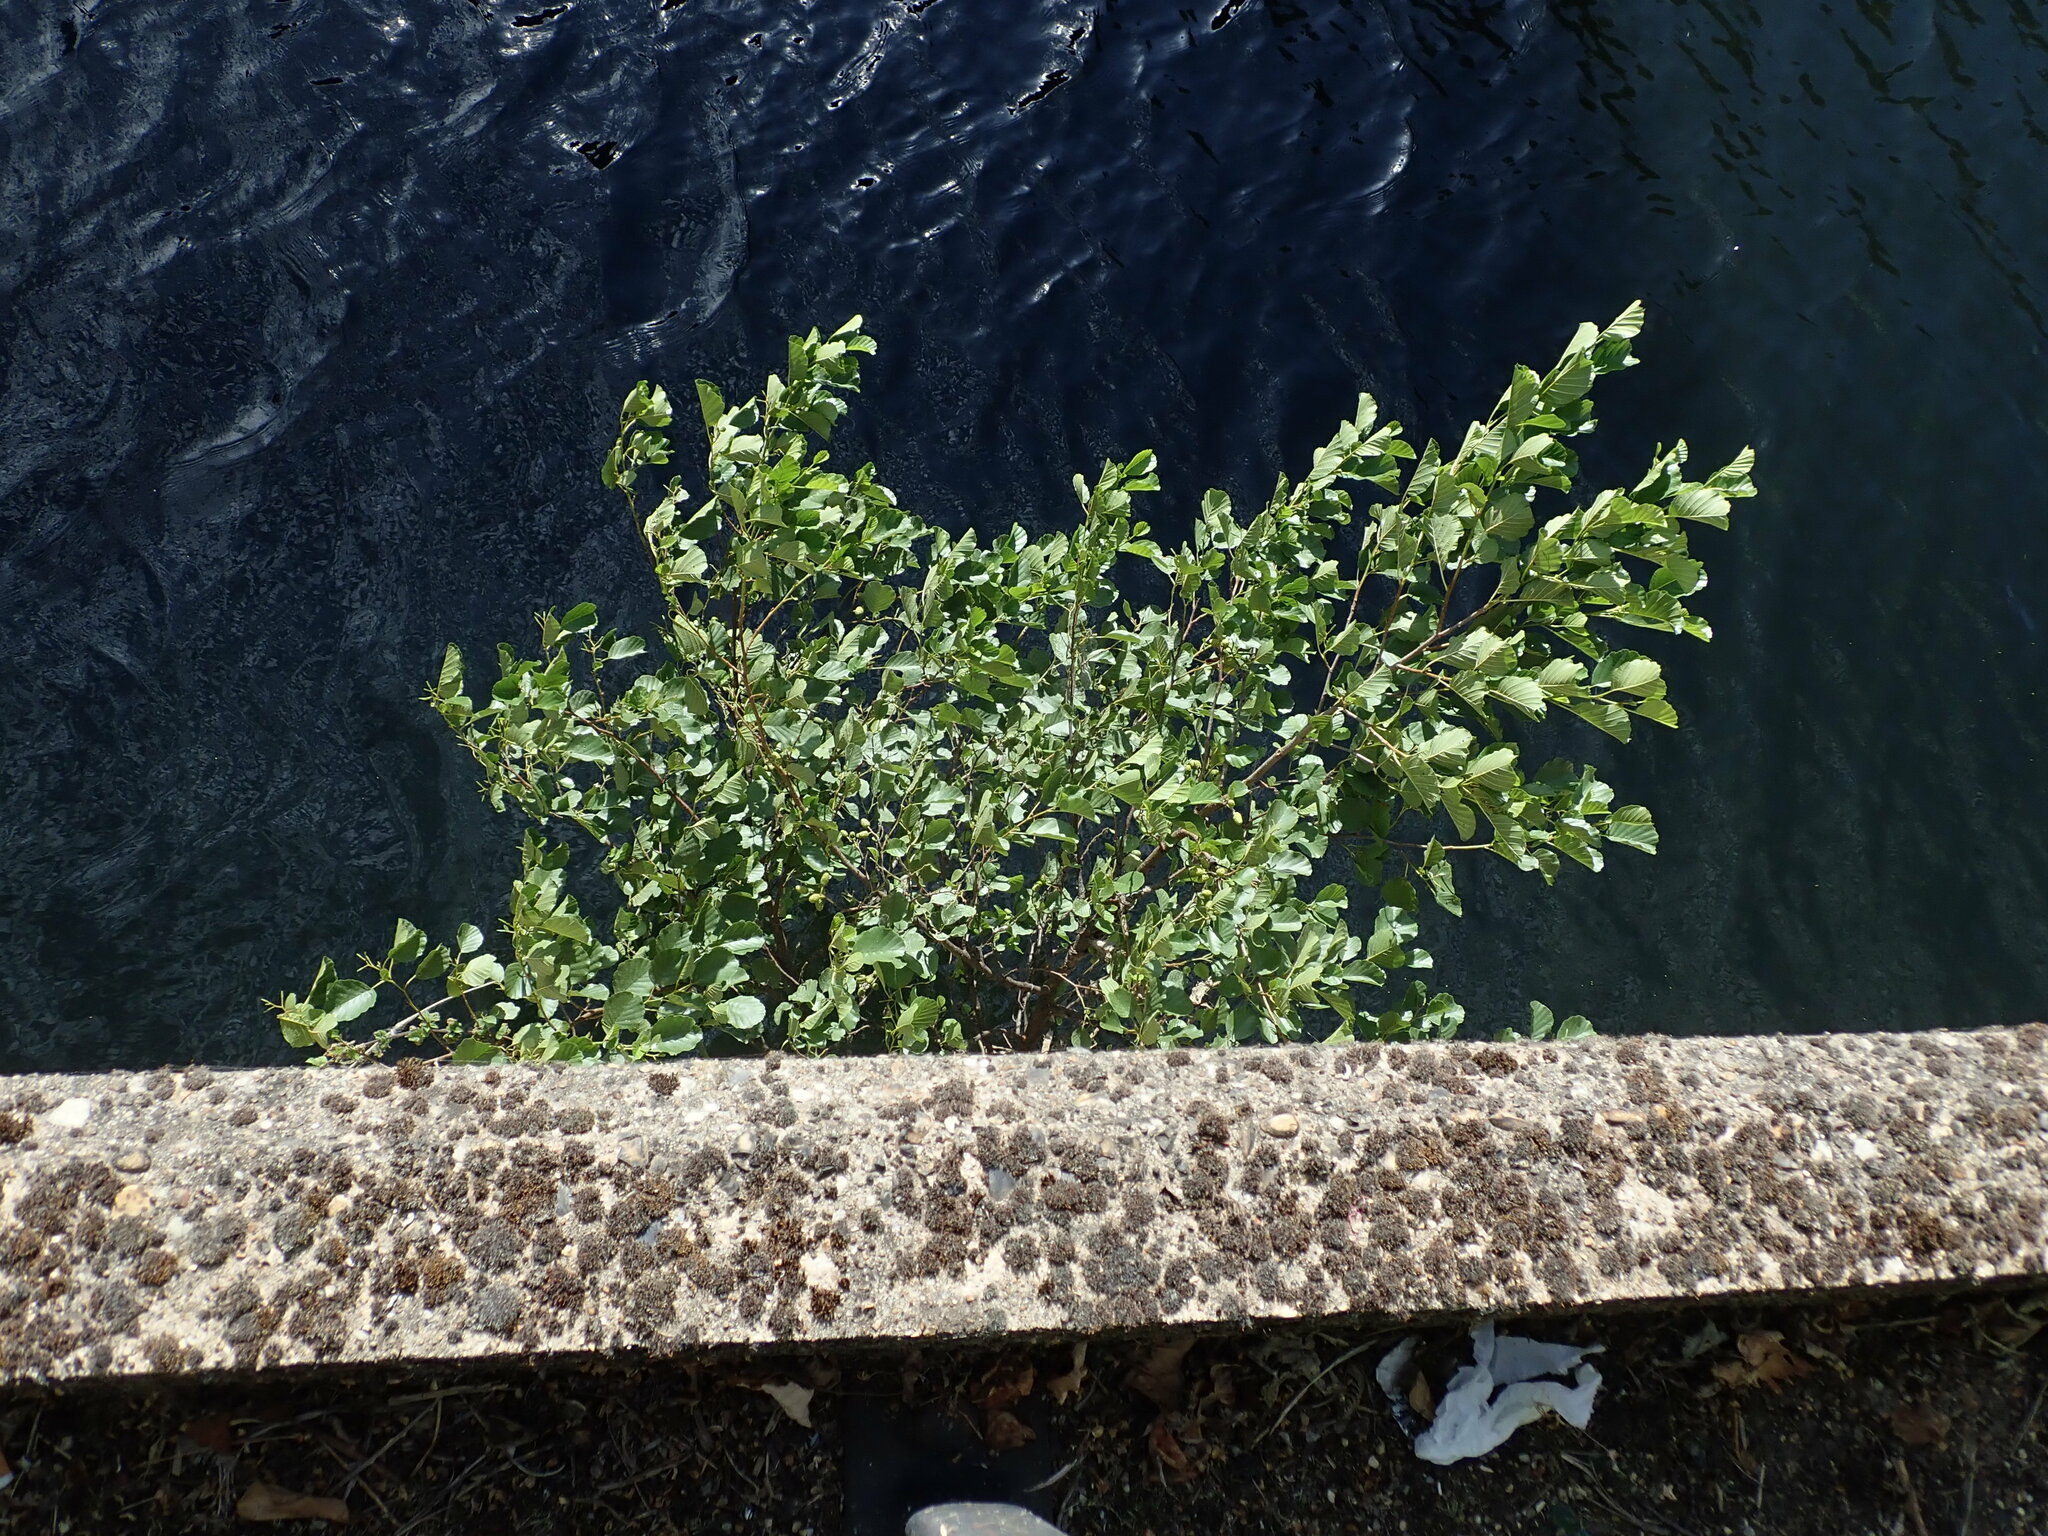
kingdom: Plantae
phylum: Tracheophyta
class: Magnoliopsida
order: Fagales
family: Betulaceae
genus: Alnus
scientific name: Alnus glutinosa
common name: Black alder
